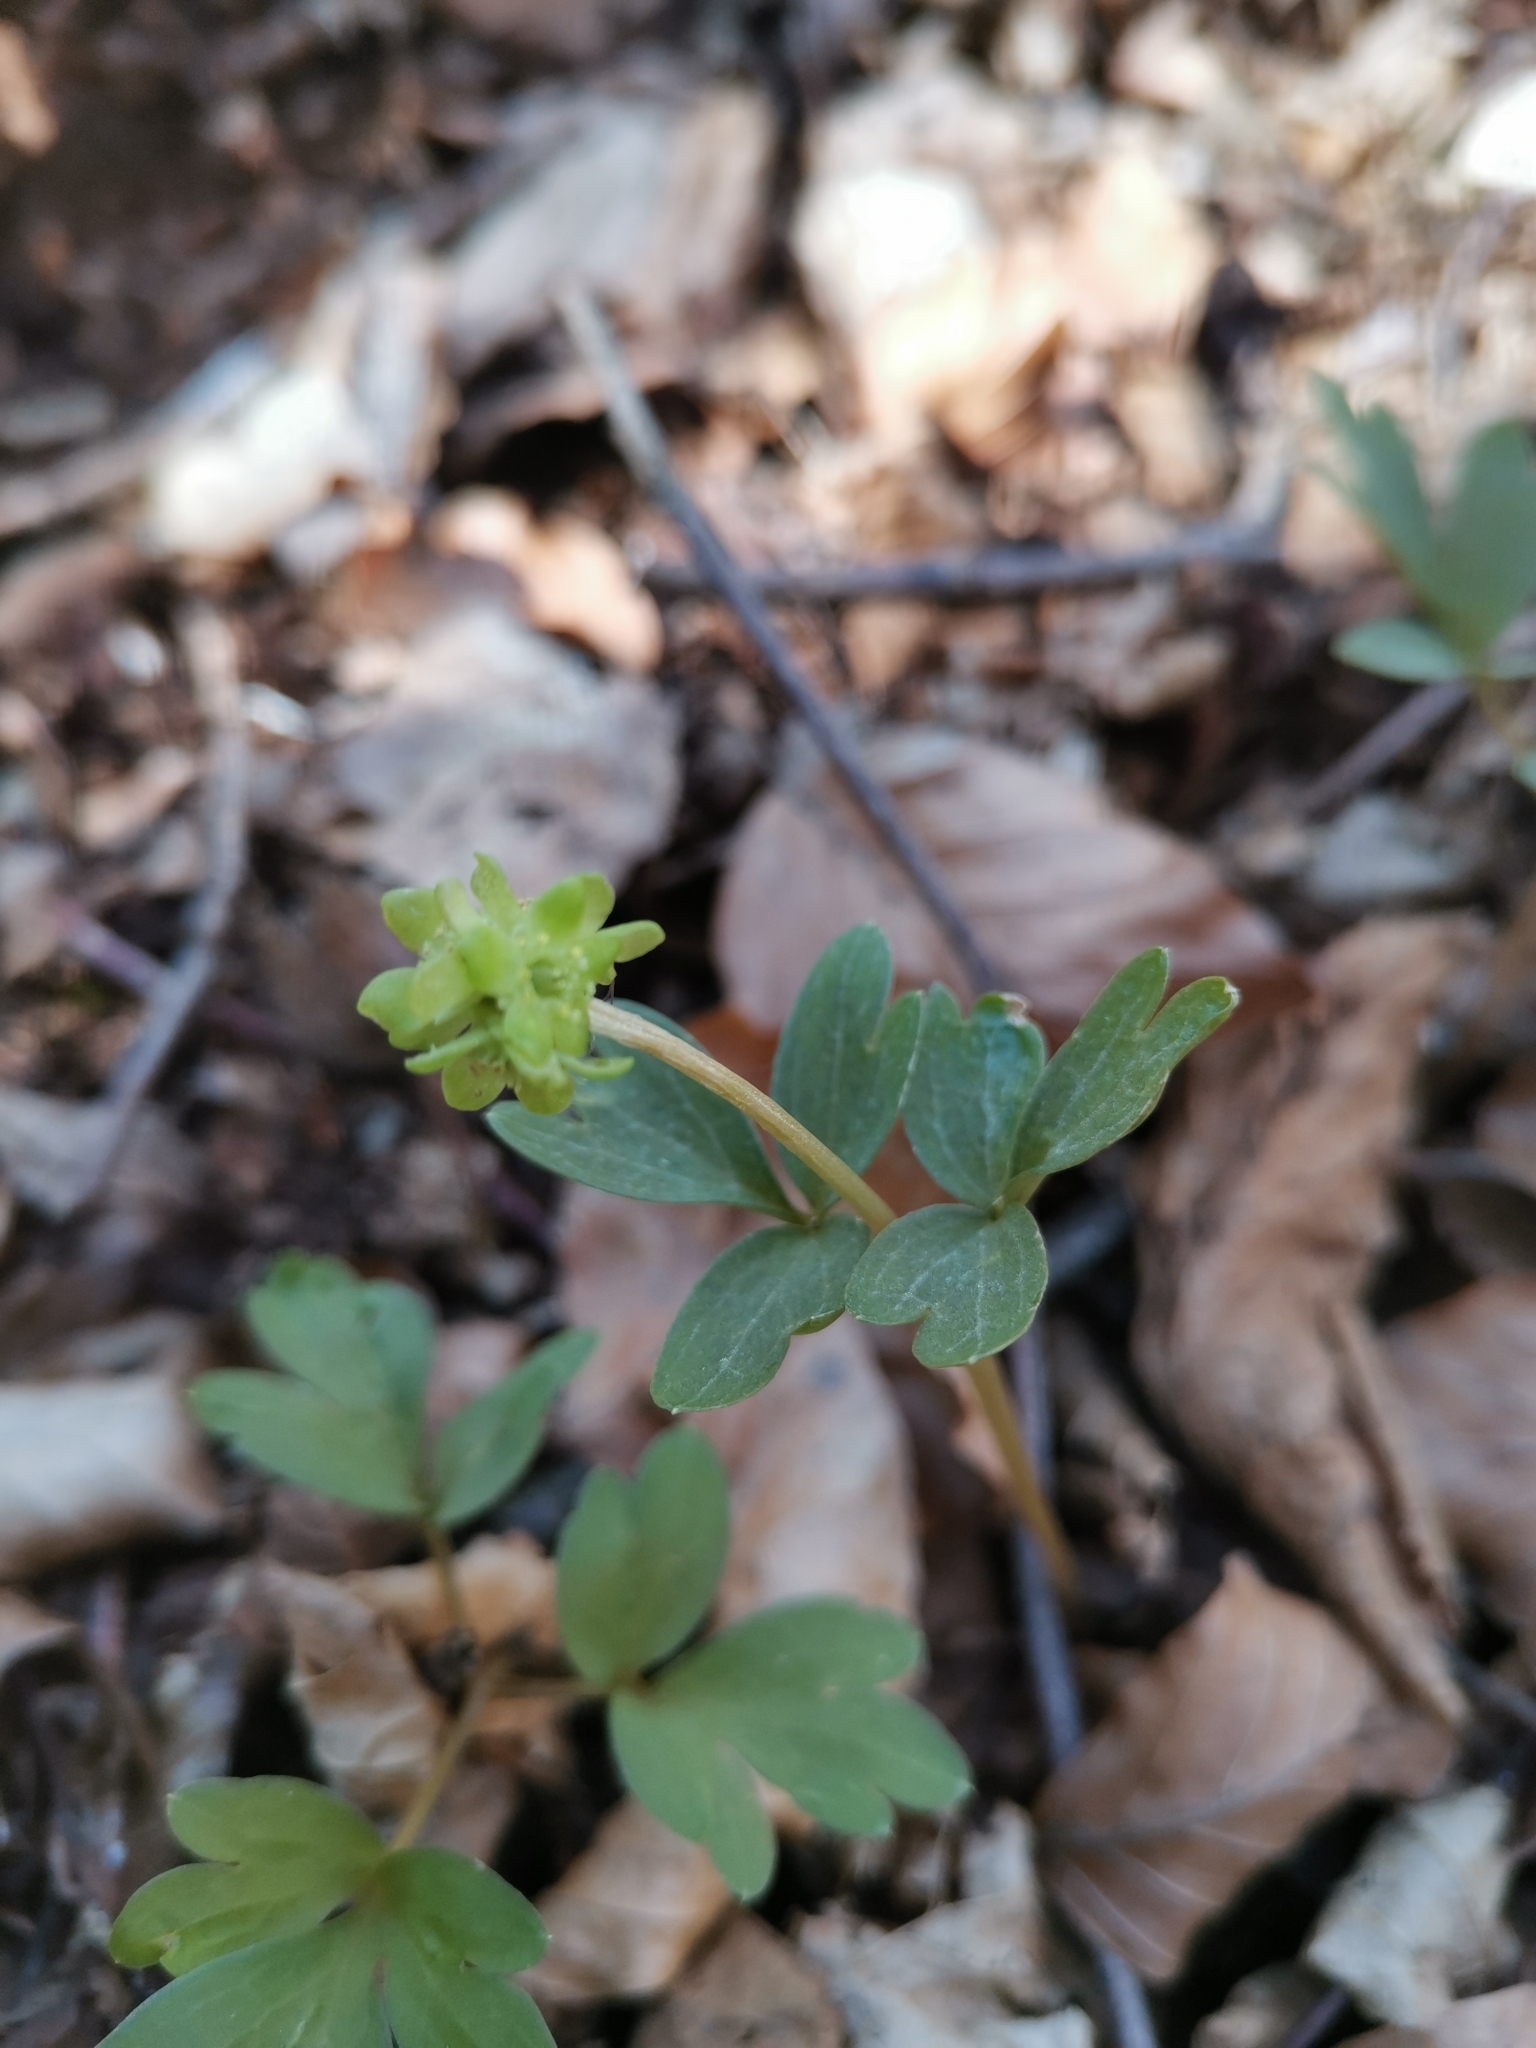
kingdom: Plantae
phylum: Tracheophyta
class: Magnoliopsida
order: Dipsacales
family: Viburnaceae
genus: Adoxa
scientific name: Adoxa moschatellina
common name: Moschatel
